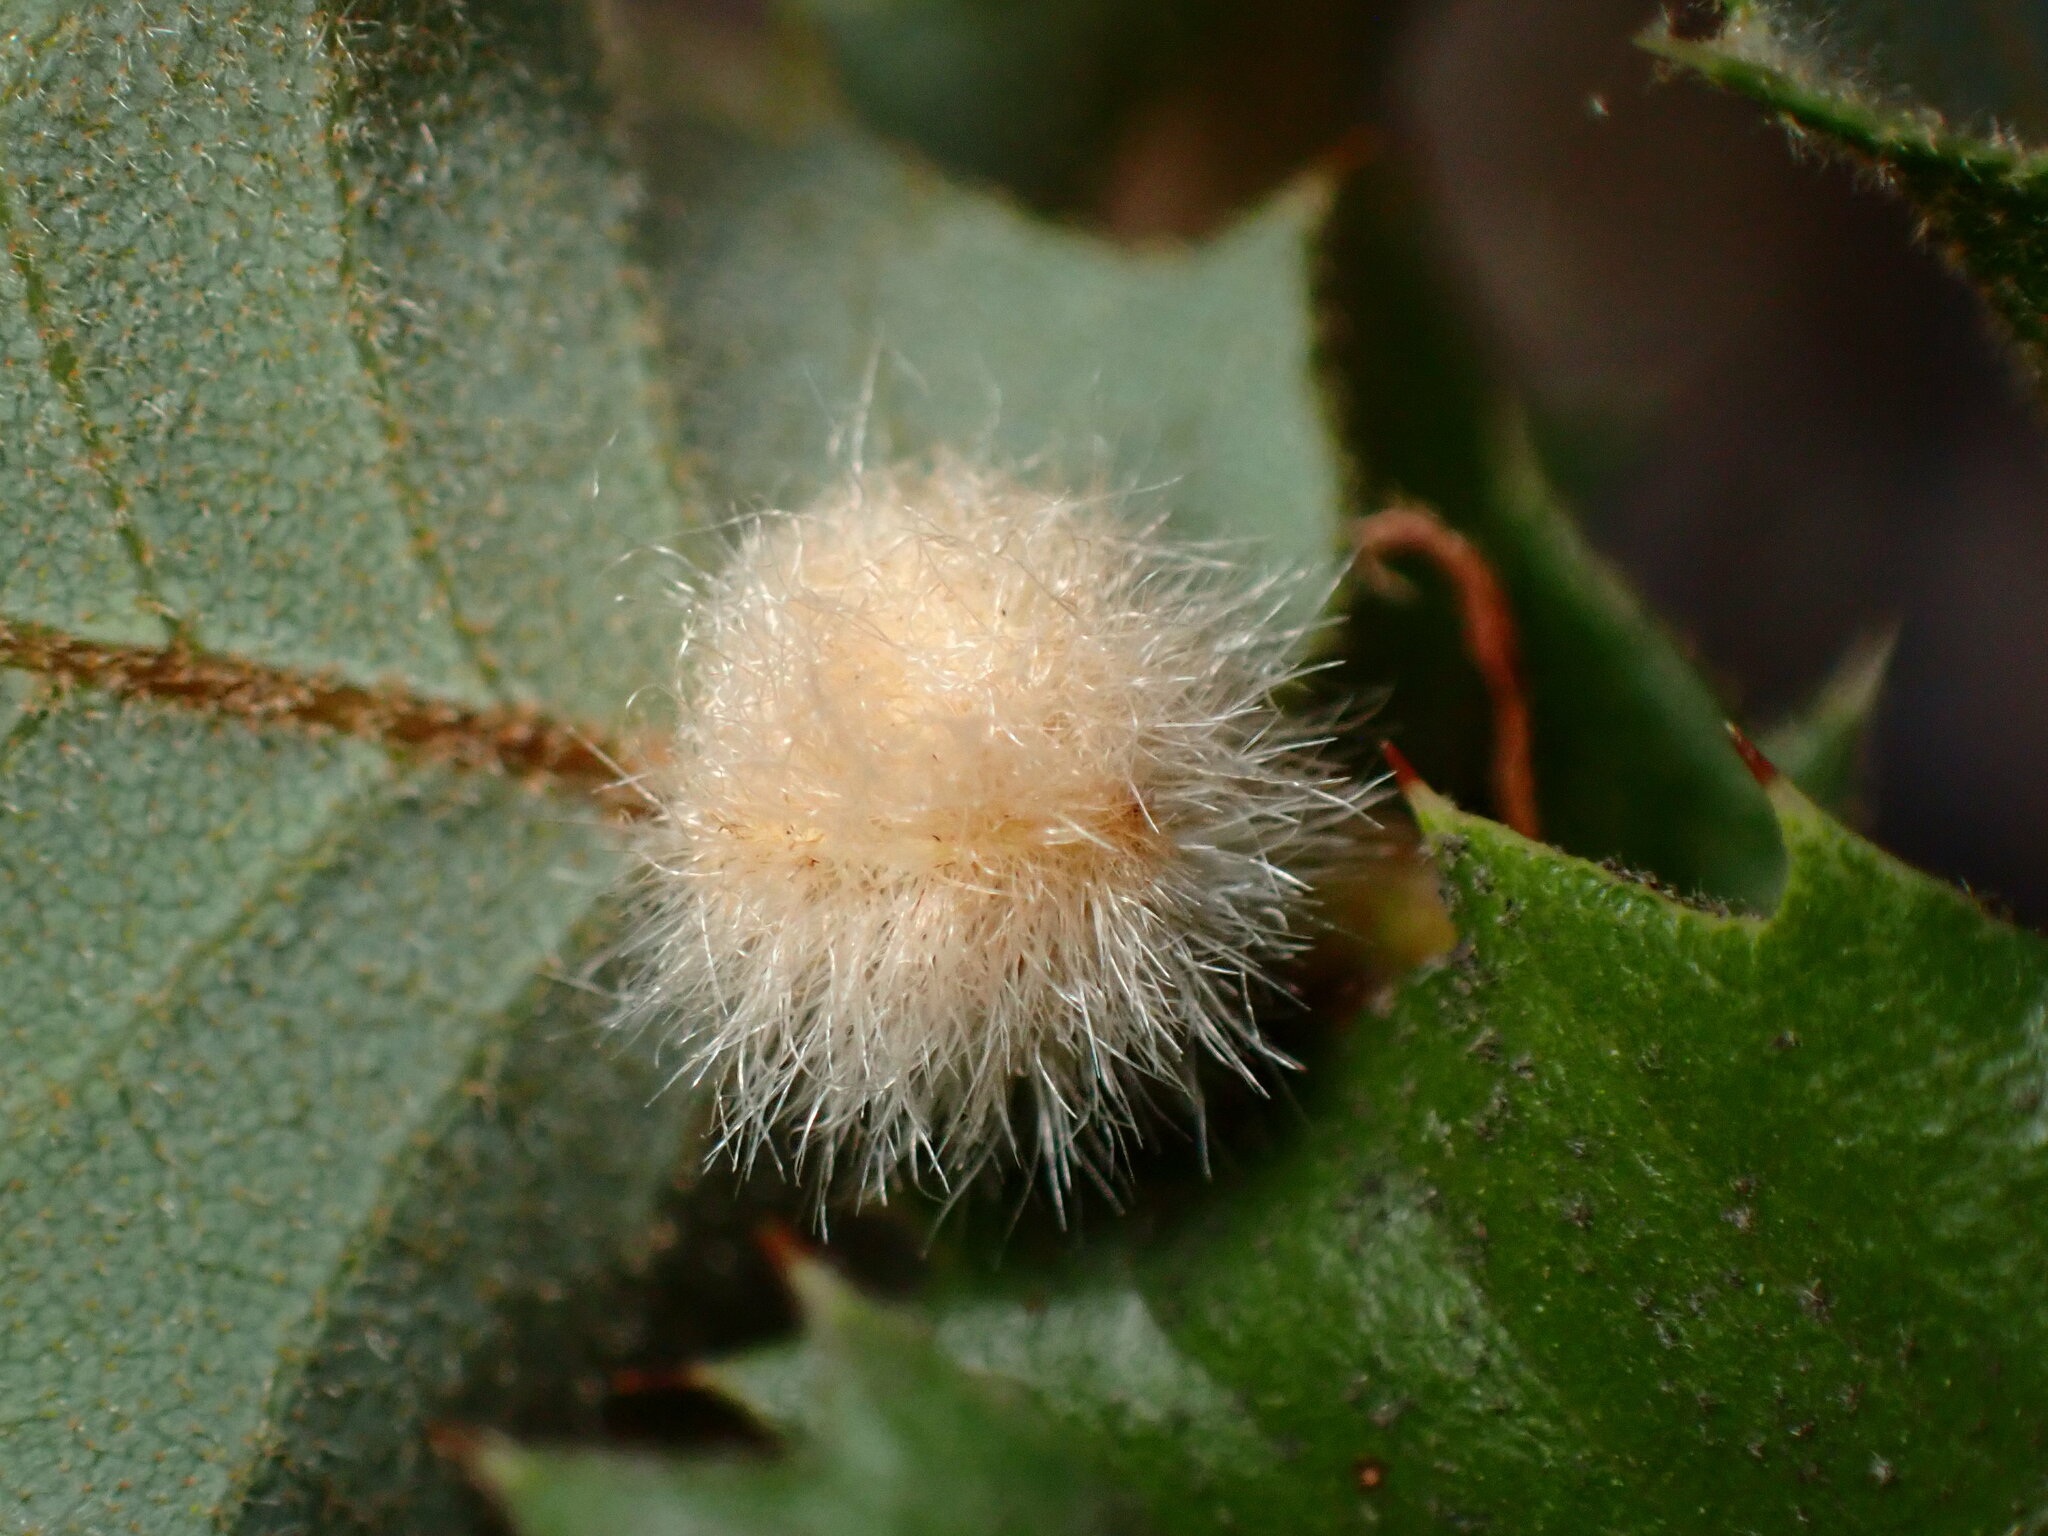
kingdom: Animalia
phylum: Arthropoda
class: Insecta
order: Hymenoptera
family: Cynipidae
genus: Disholandricus
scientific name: Disholandricus
